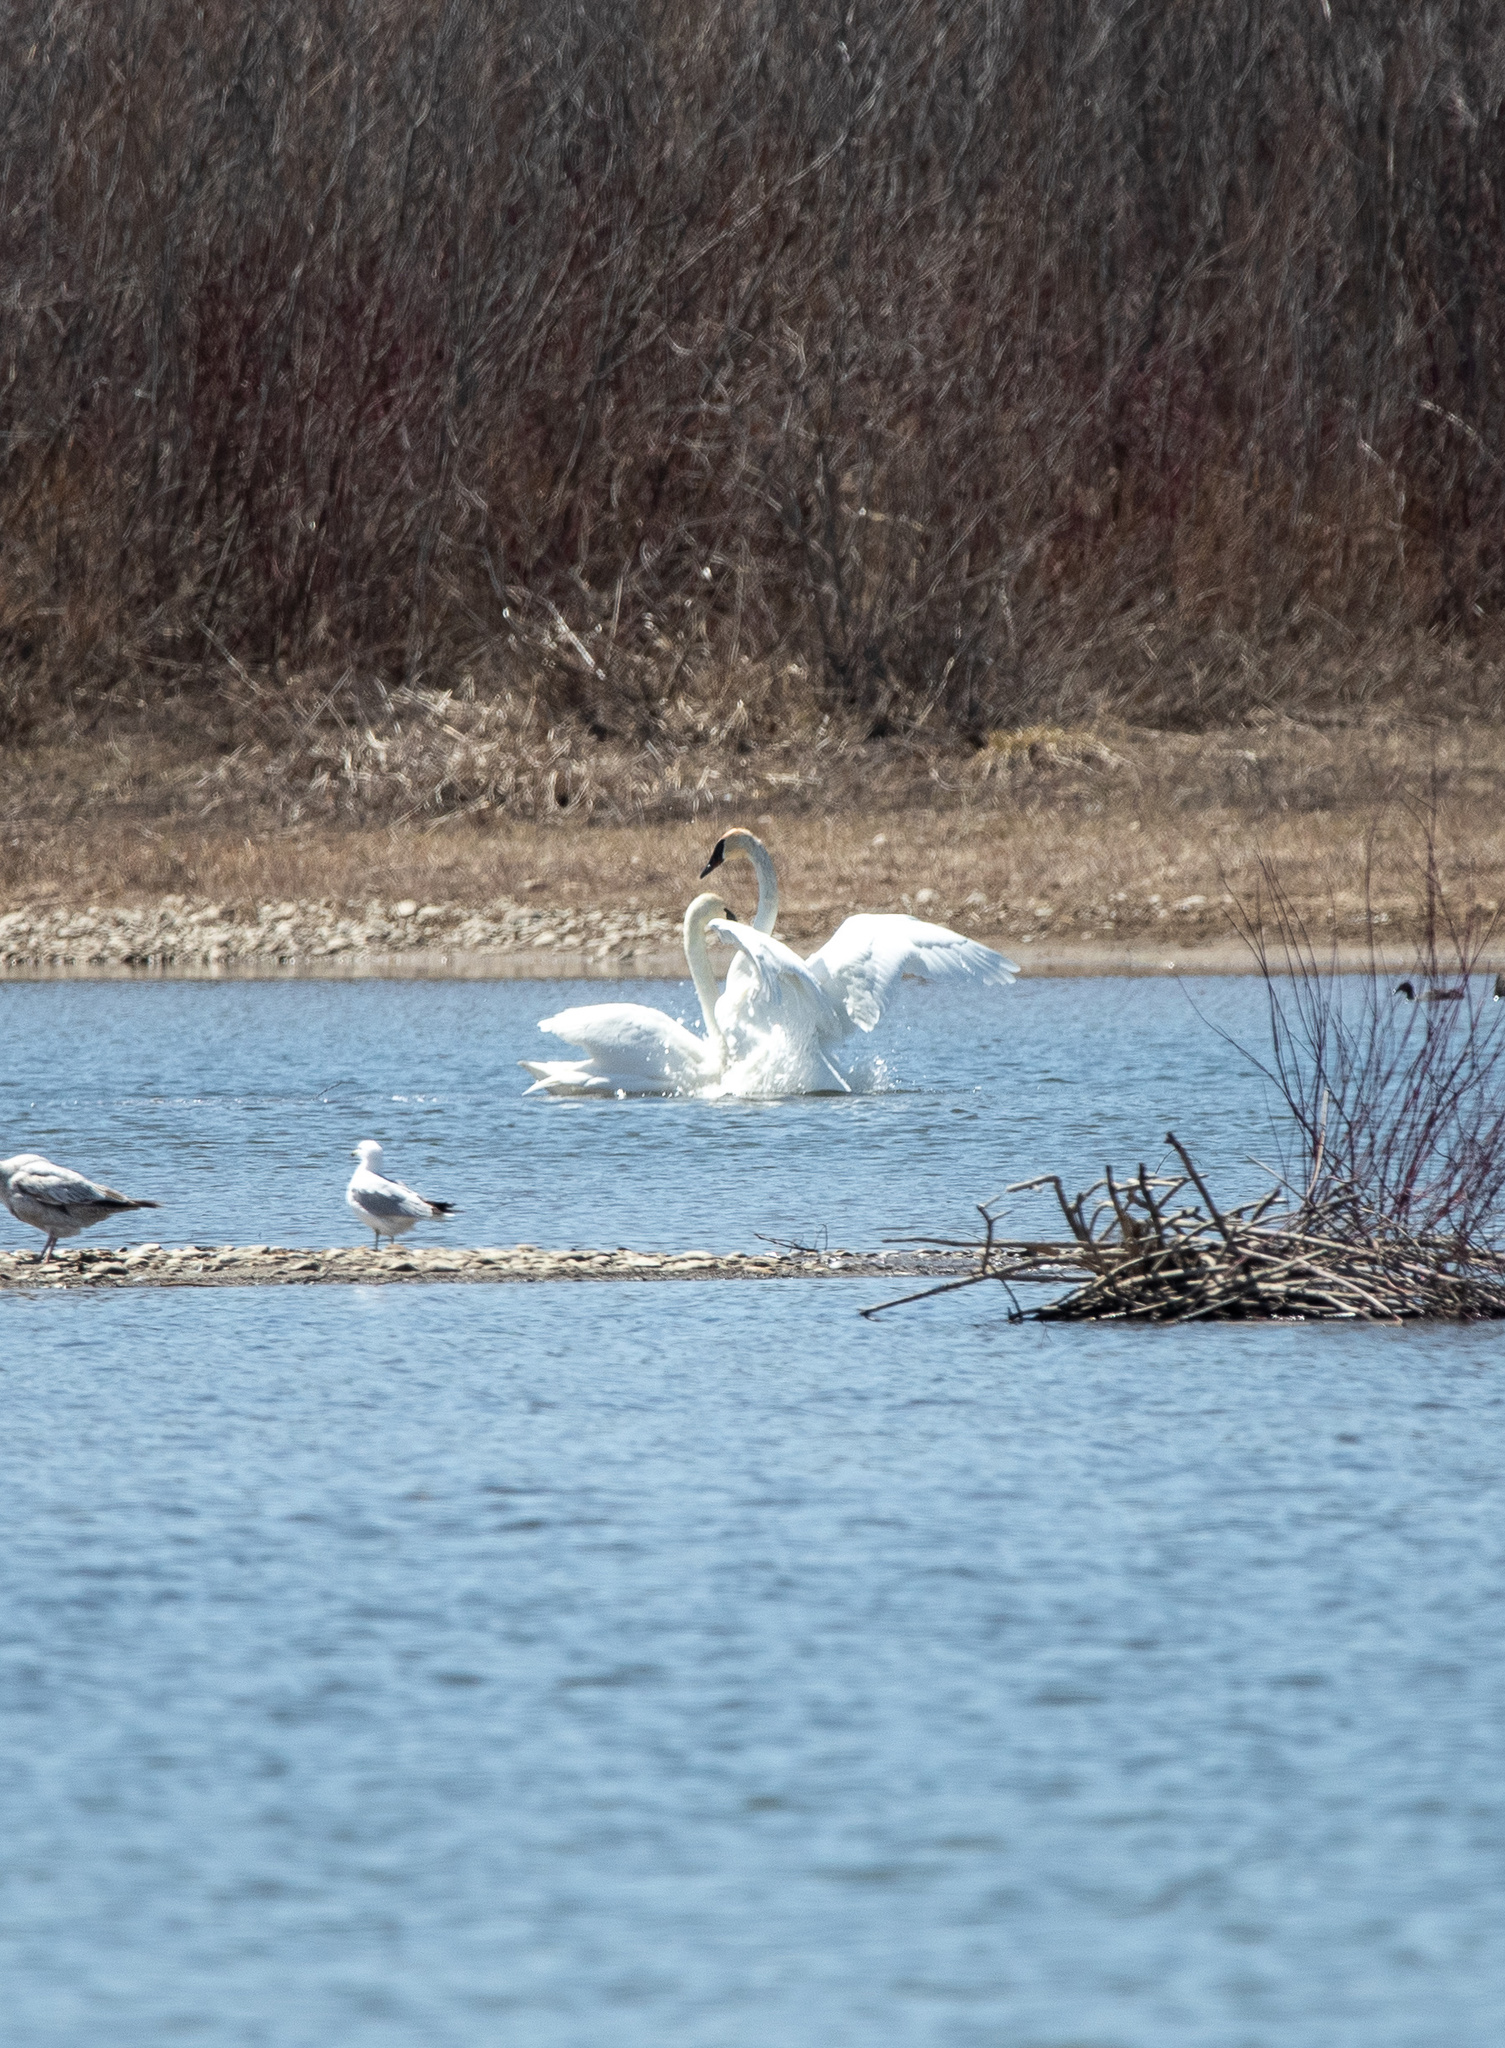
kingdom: Animalia
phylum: Chordata
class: Aves
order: Anseriformes
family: Anatidae
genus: Cygnus
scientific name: Cygnus buccinator
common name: Trumpeter swan
